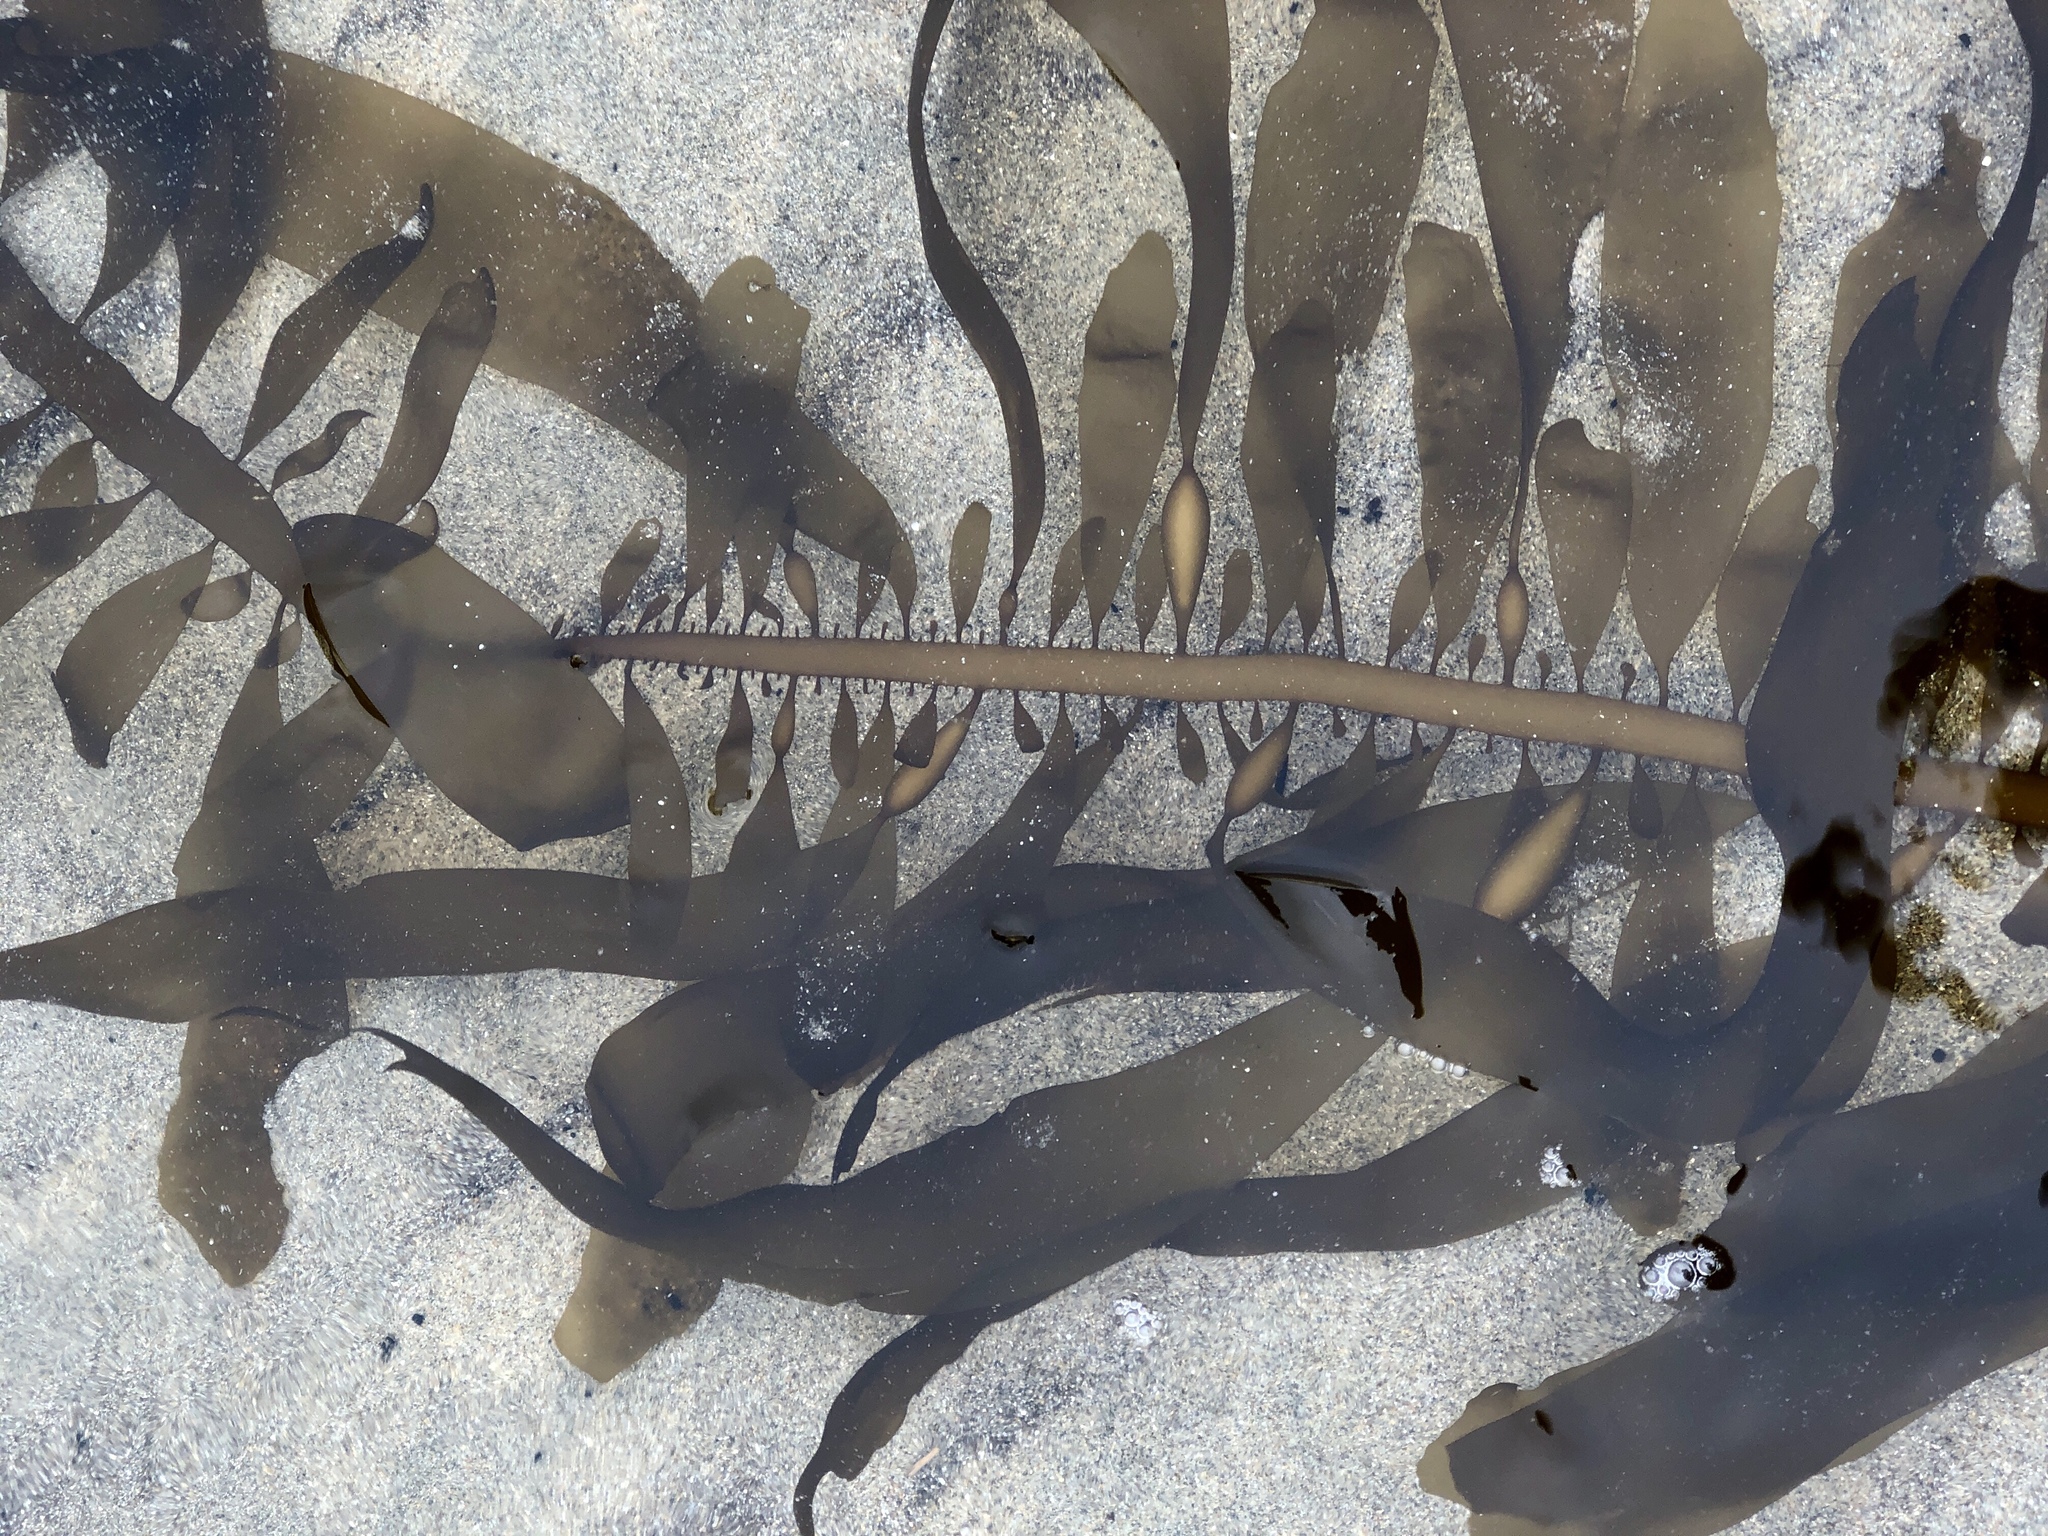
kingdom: Chromista
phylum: Ochrophyta
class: Phaeophyceae
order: Laminariales
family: Lessoniaceae
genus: Egregia
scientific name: Egregia menziesii
